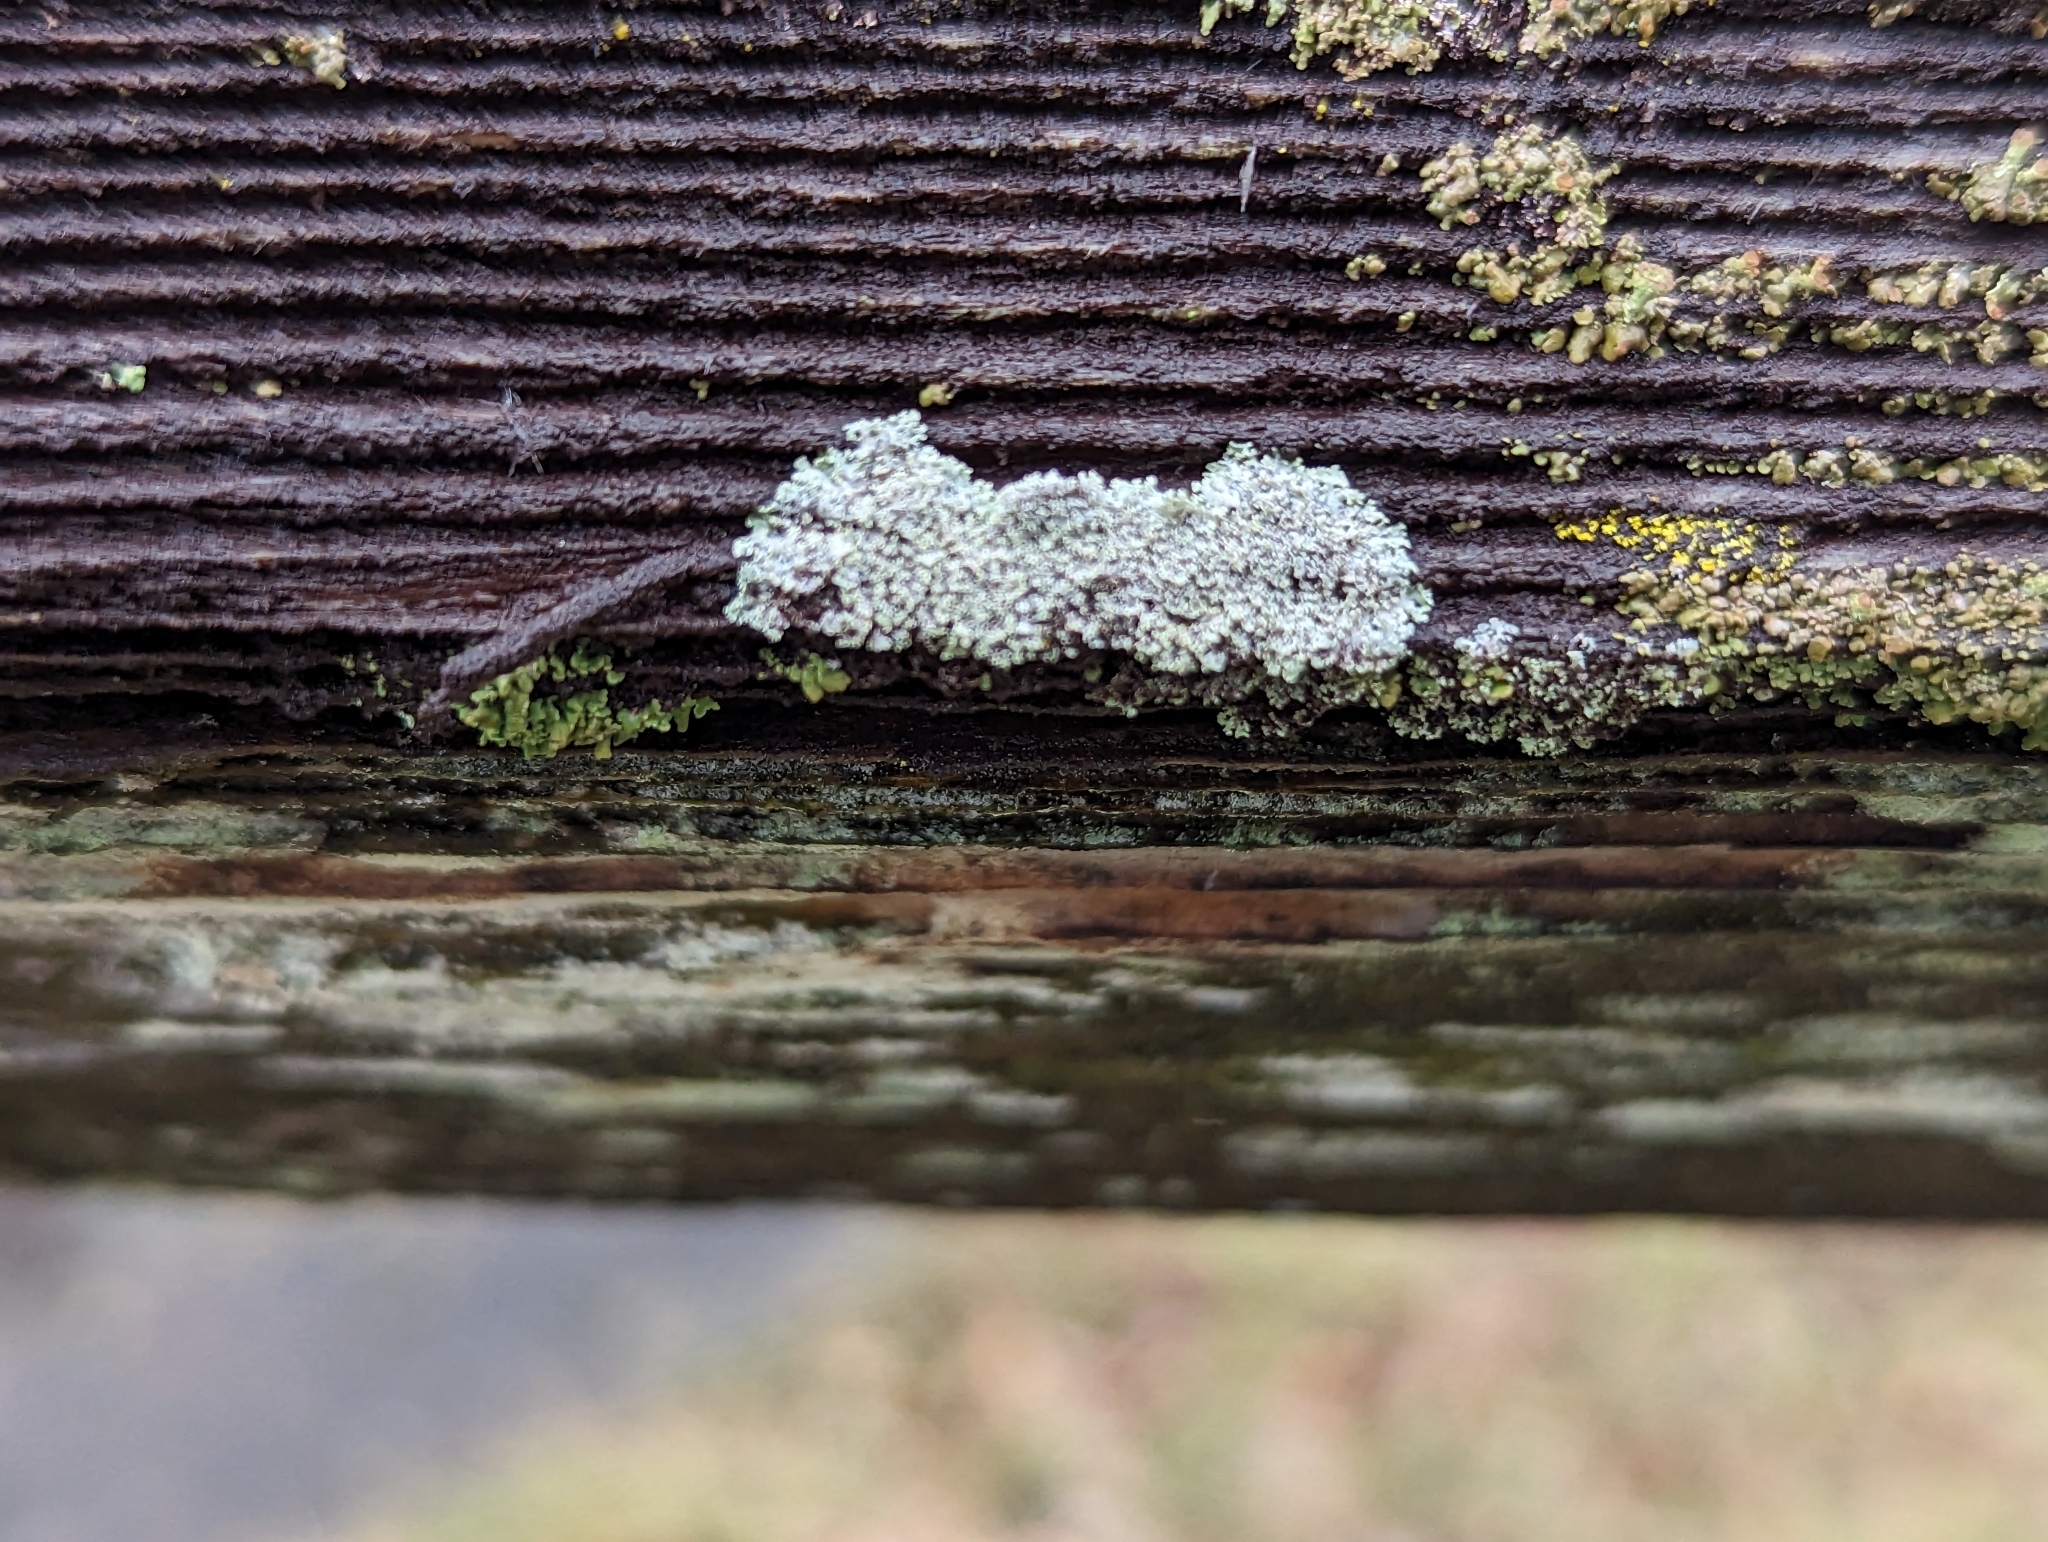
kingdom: Fungi
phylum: Ascomycota
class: Lecanoromycetes
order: Caliciales
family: Physciaceae
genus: Physcia
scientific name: Physcia millegrana
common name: Rosette lichen
